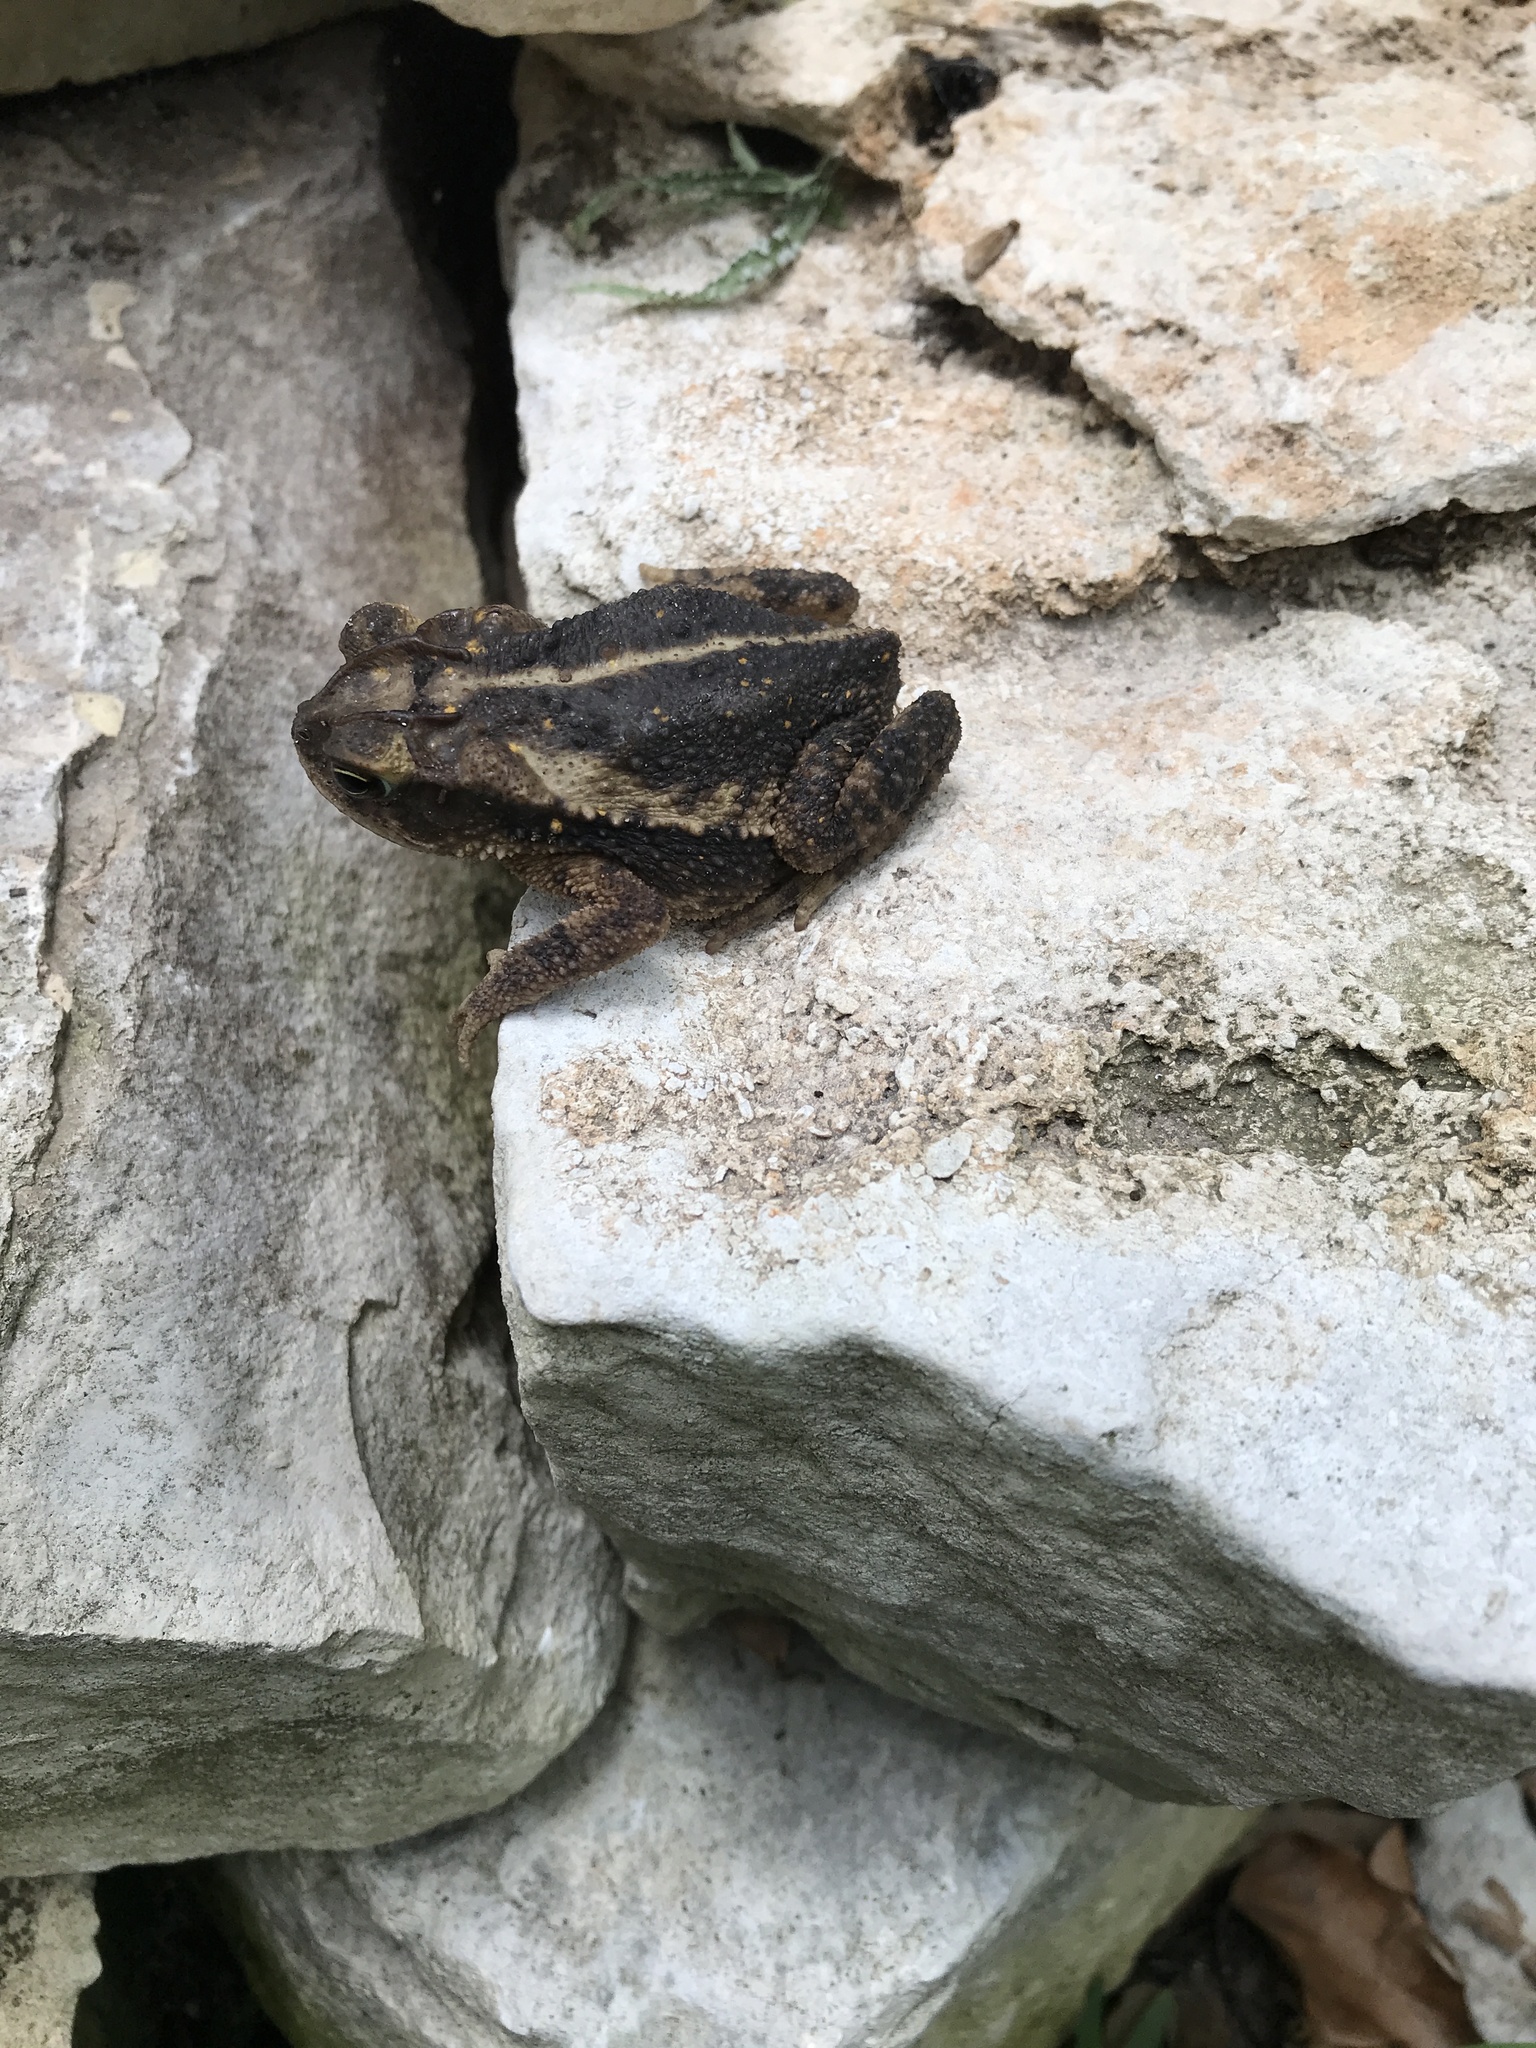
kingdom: Animalia
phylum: Chordata
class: Amphibia
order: Anura
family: Bufonidae
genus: Incilius
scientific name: Incilius nebulifer
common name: Gulf coast toad
